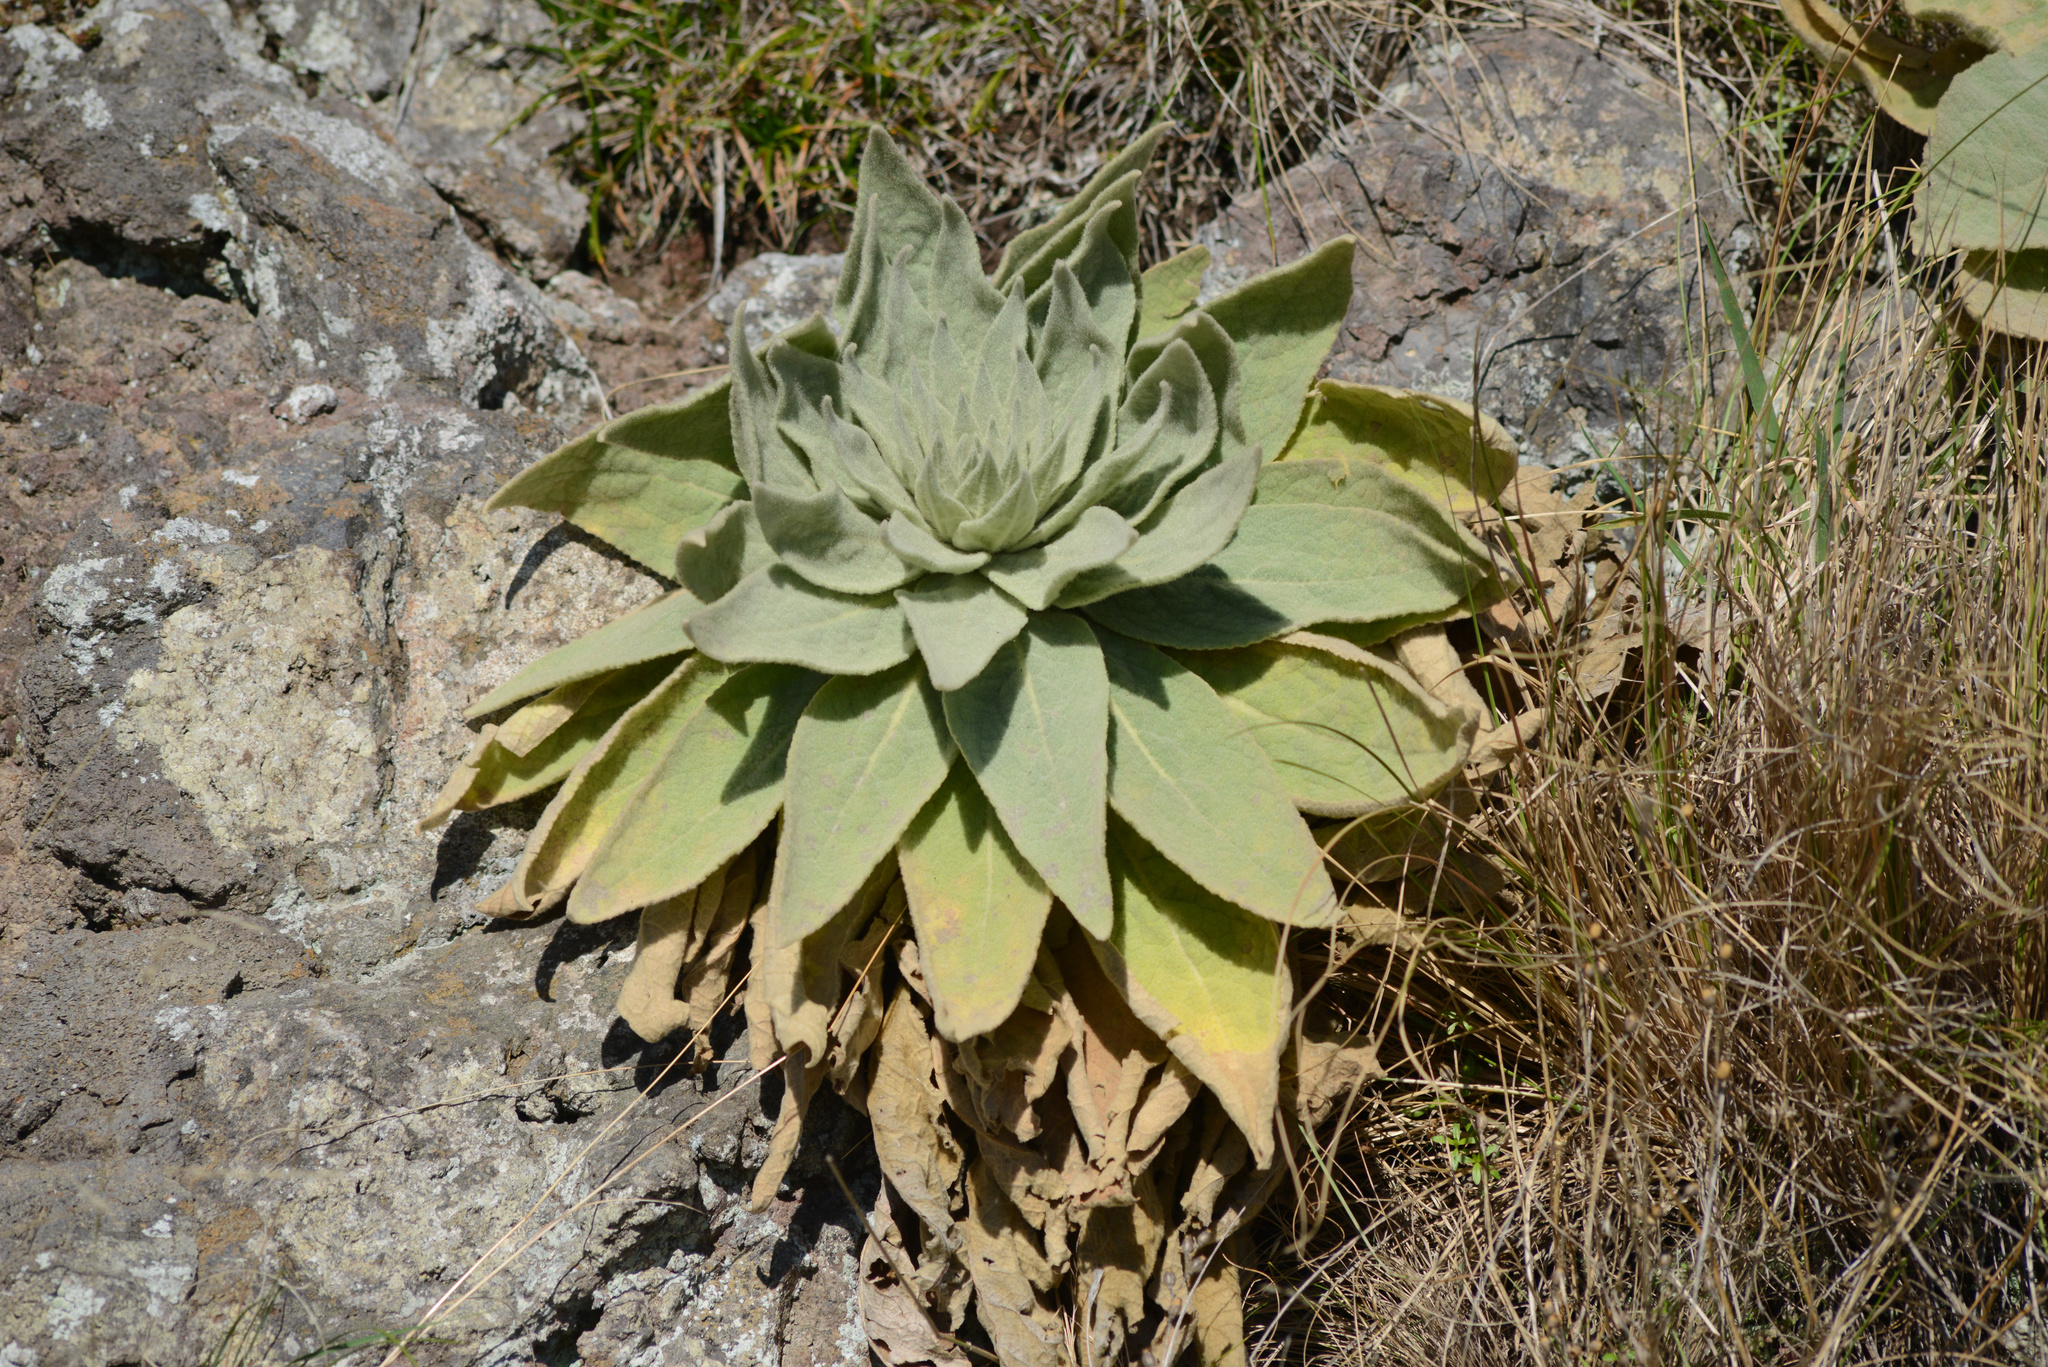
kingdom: Plantae
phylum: Tracheophyta
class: Magnoliopsida
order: Lamiales
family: Scrophulariaceae
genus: Verbascum
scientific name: Verbascum thapsus
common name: Common mullein
